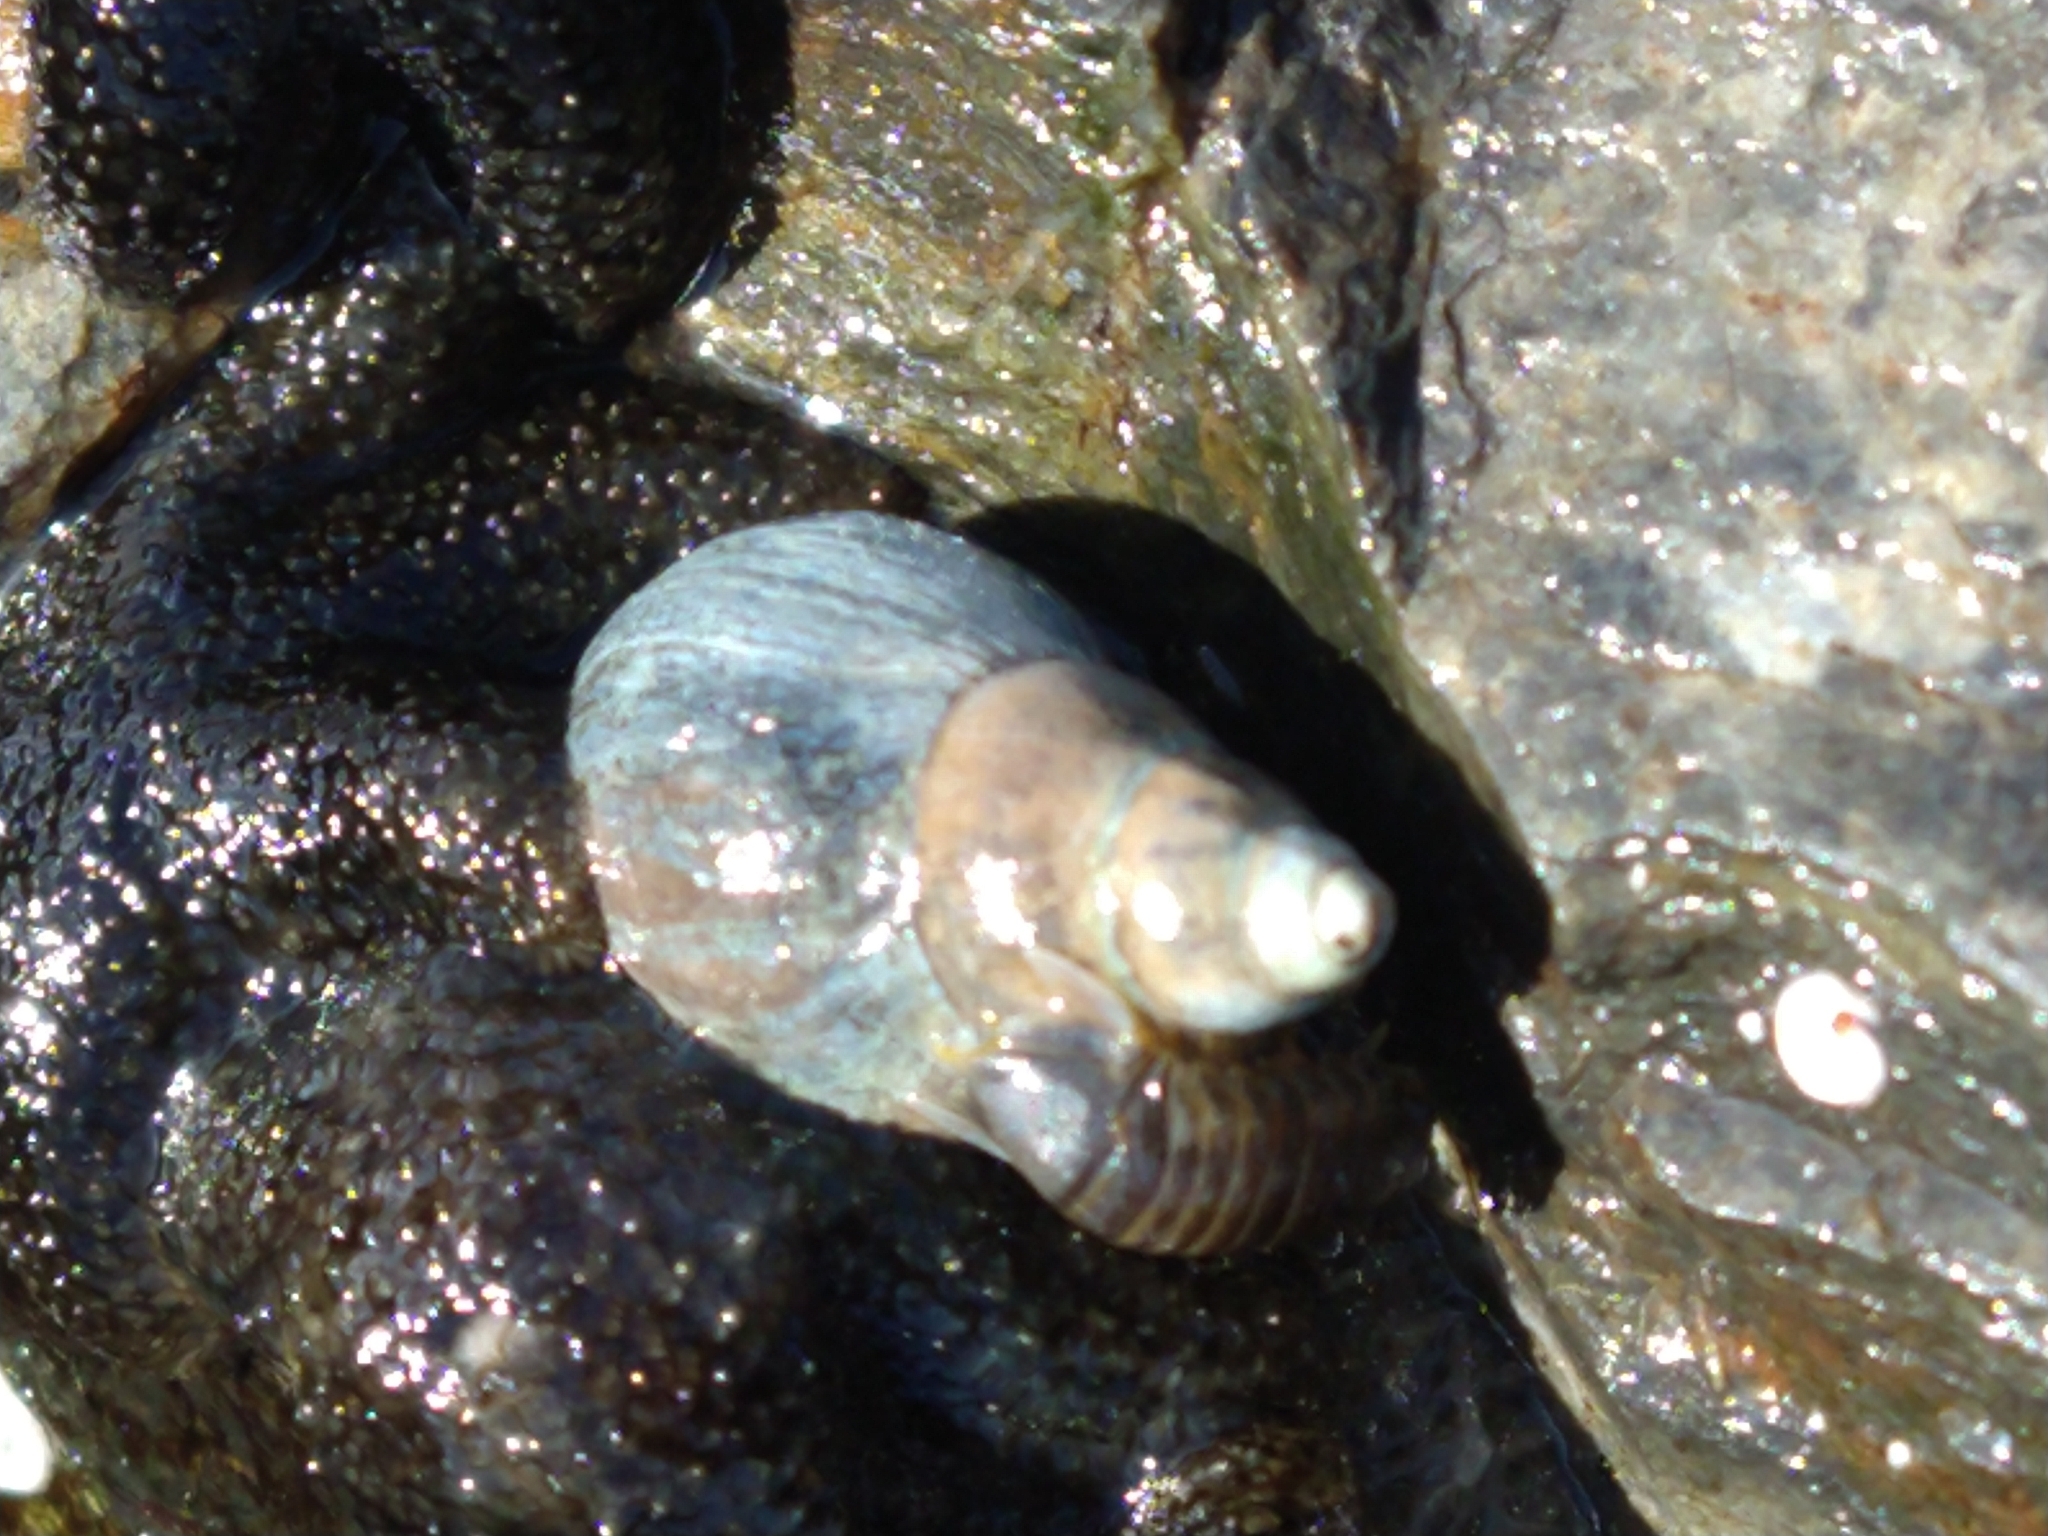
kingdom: Animalia
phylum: Mollusca
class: Gastropoda
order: Neogastropoda
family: Cominellidae
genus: Pareuthria
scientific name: Pareuthria fuscata
